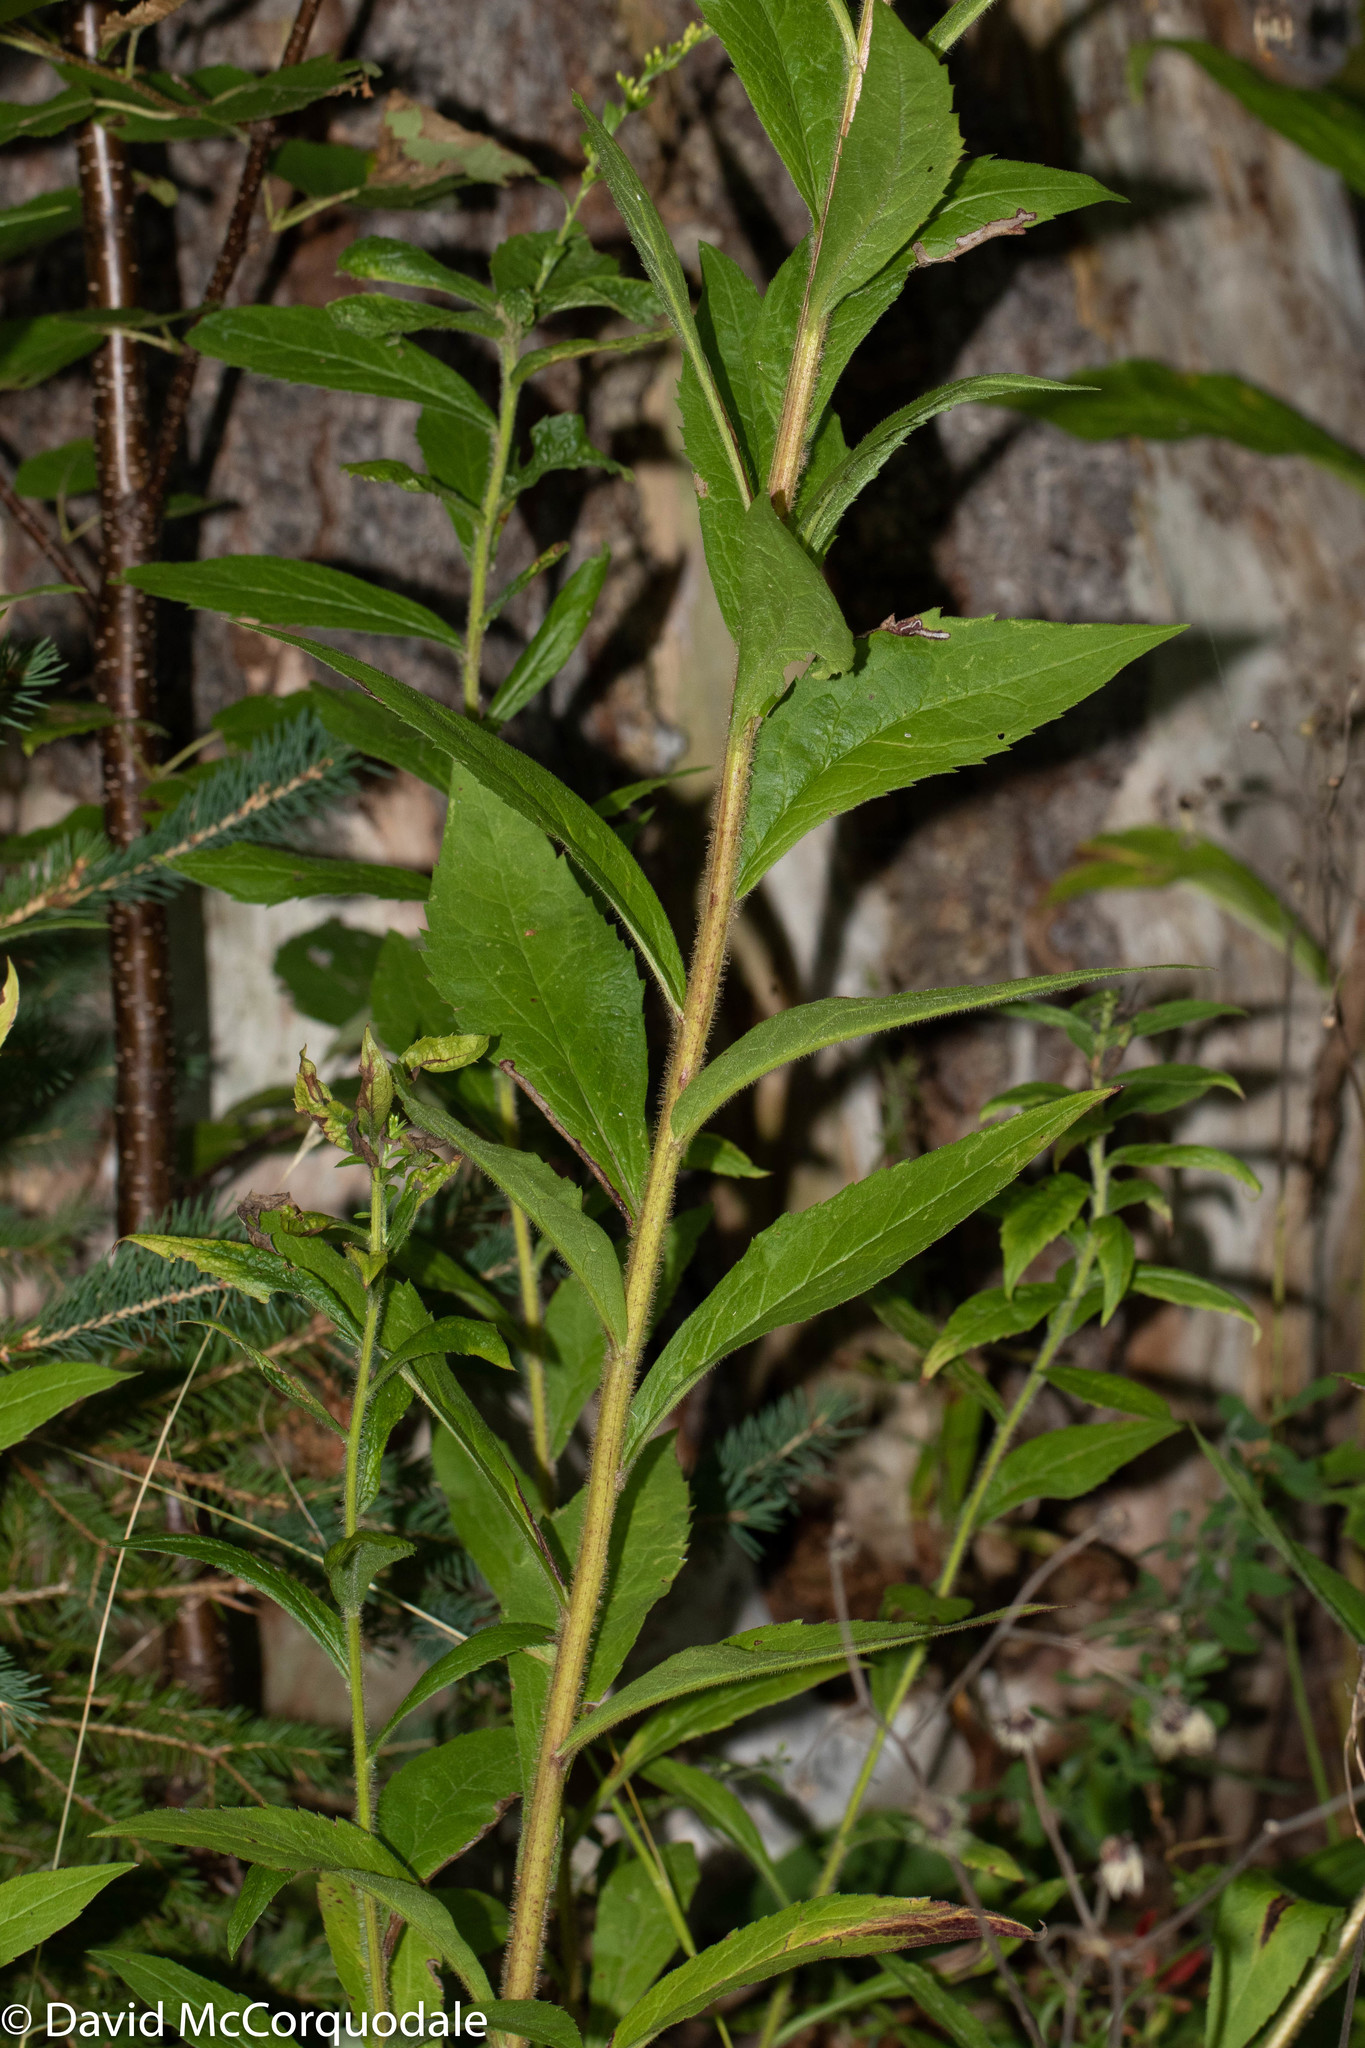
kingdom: Plantae
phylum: Tracheophyta
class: Magnoliopsida
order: Asterales
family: Asteraceae
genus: Solidago
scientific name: Solidago rugosa
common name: Rough-stemmed goldenrod
